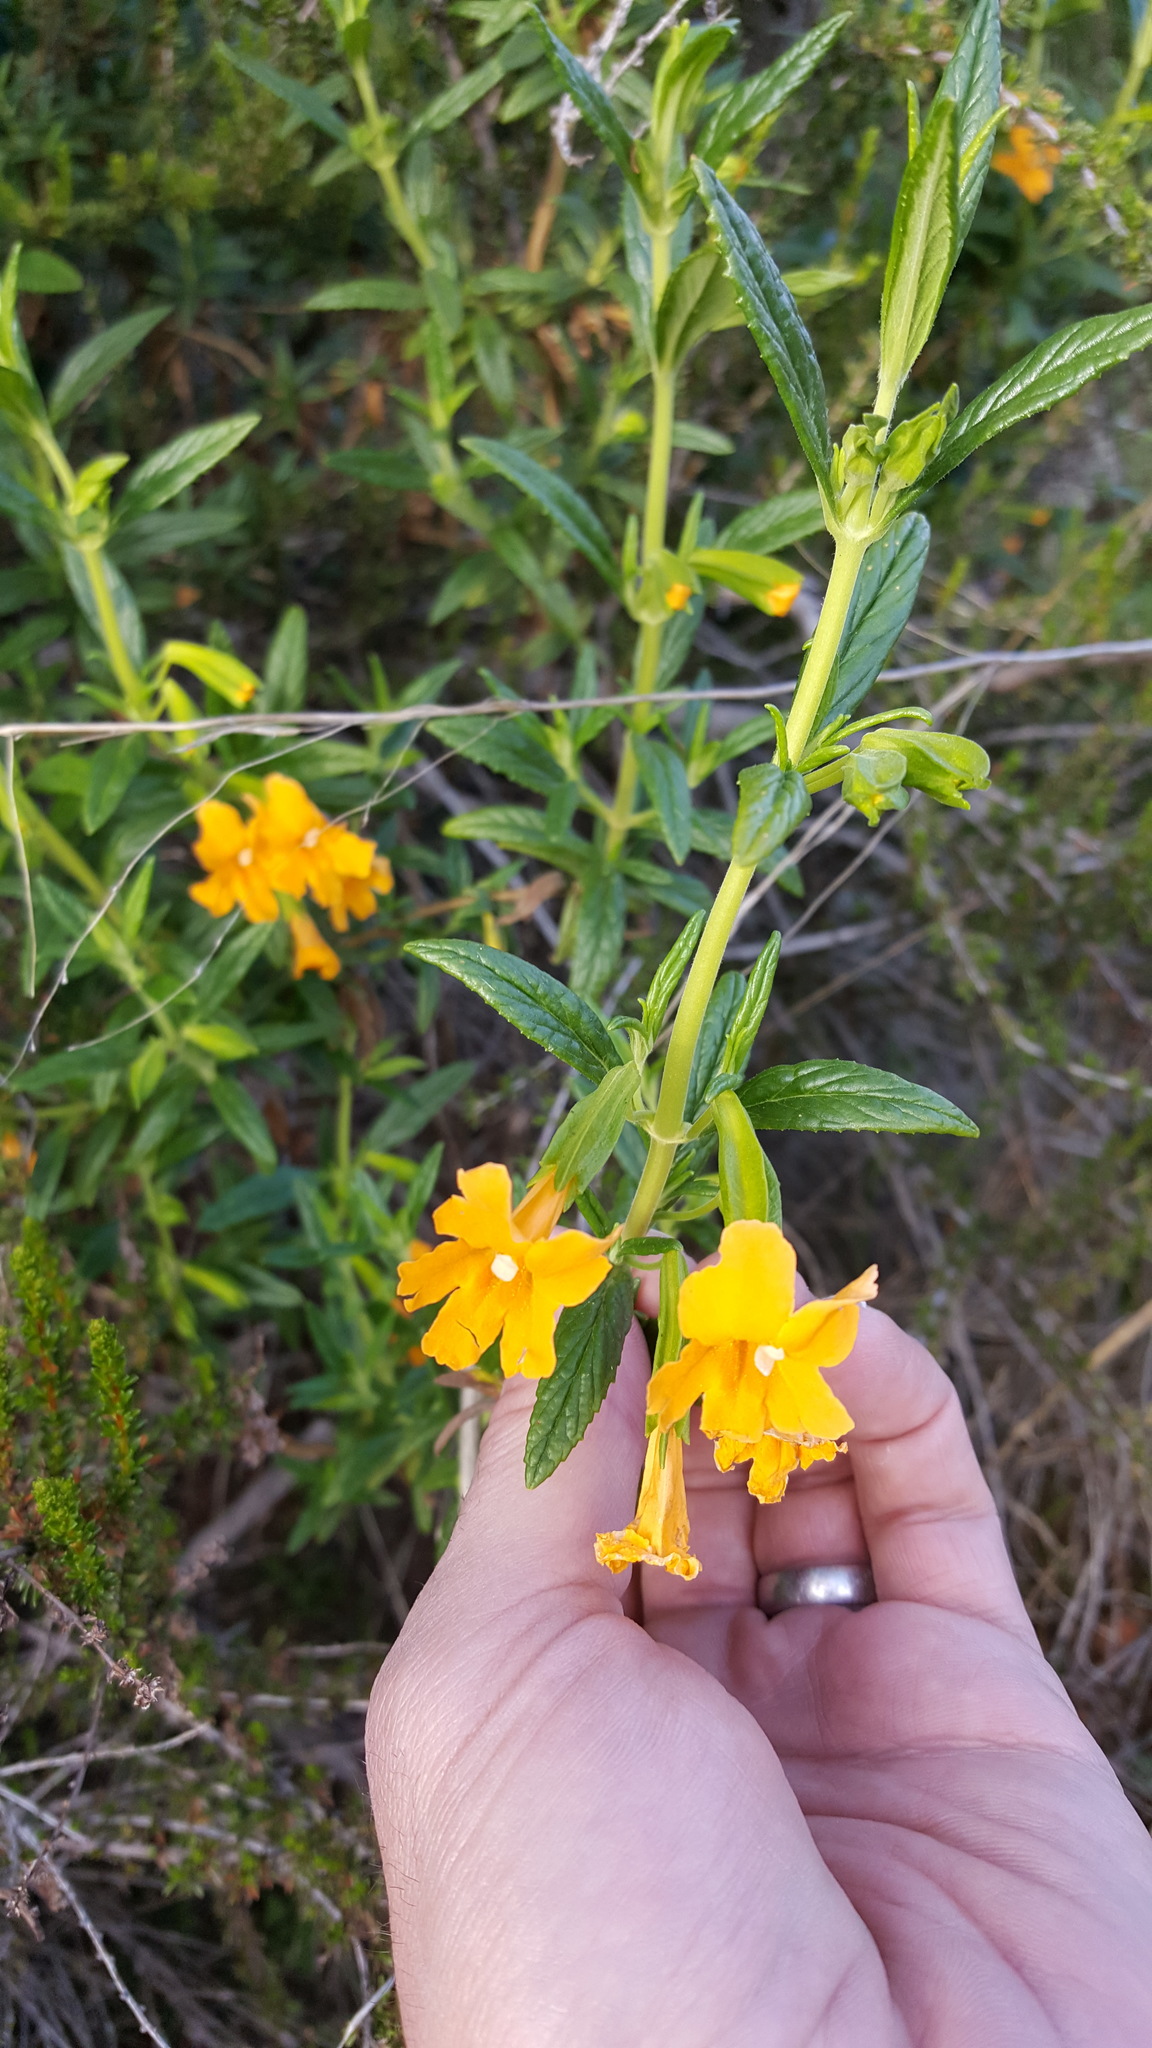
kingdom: Plantae
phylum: Tracheophyta
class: Magnoliopsida
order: Lamiales
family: Phrymaceae
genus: Diplacus
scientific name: Diplacus aurantiacus
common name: Bush monkey-flower
